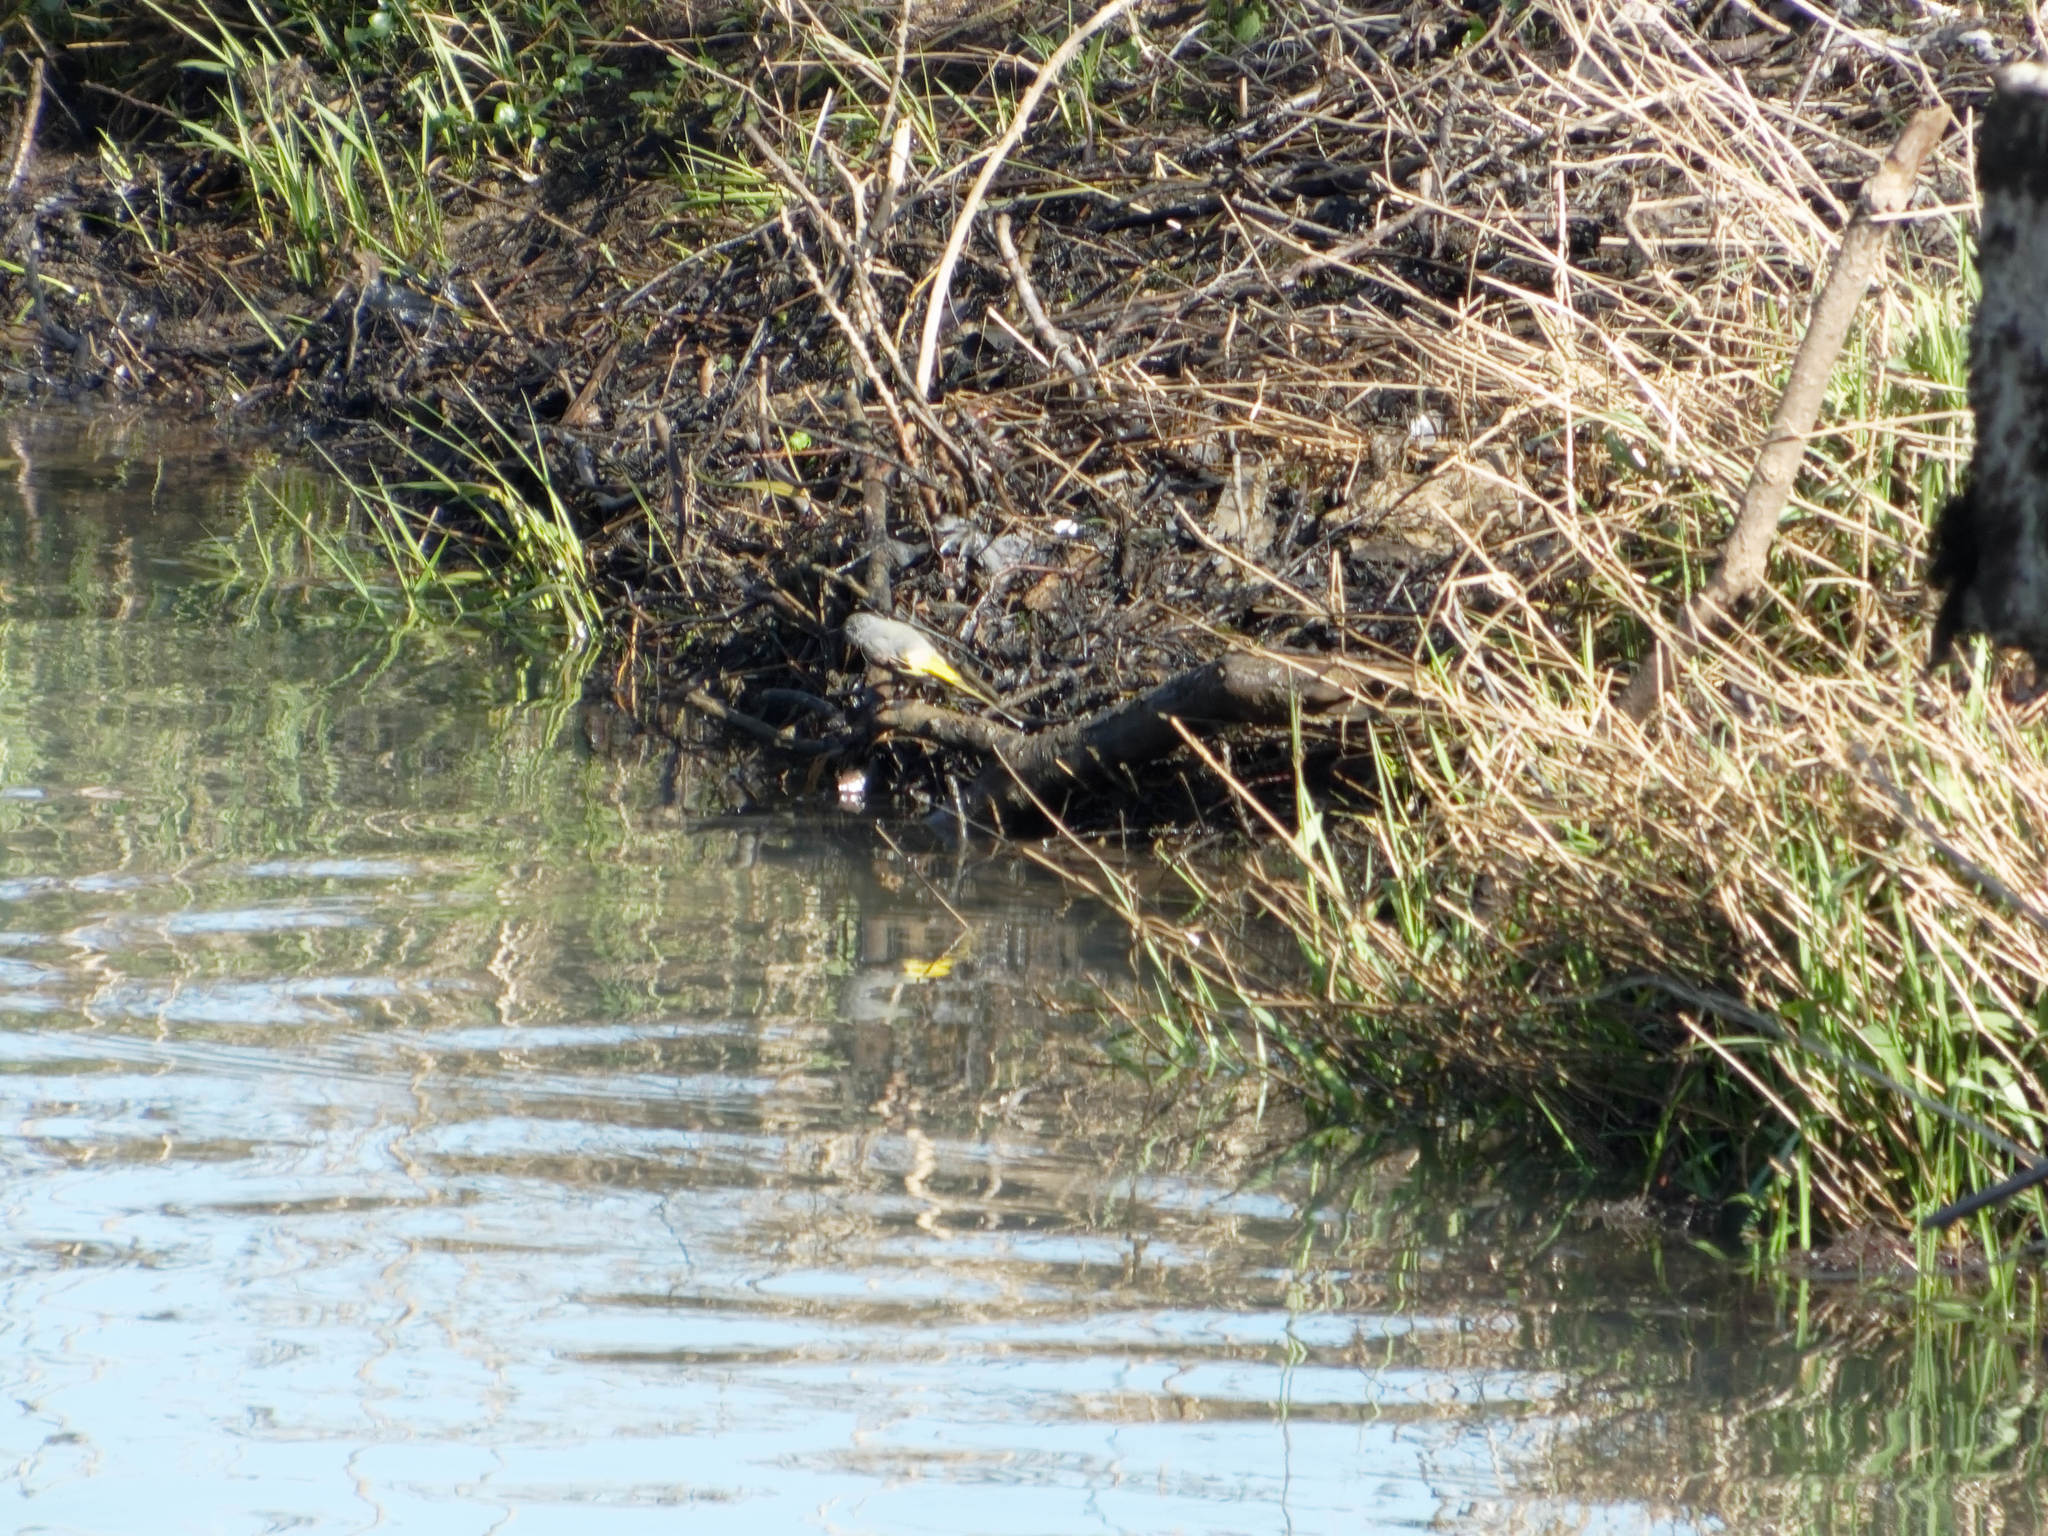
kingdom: Animalia
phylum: Chordata
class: Aves
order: Passeriformes
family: Motacillidae
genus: Motacilla
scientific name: Motacilla cinerea
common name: Grey wagtail
